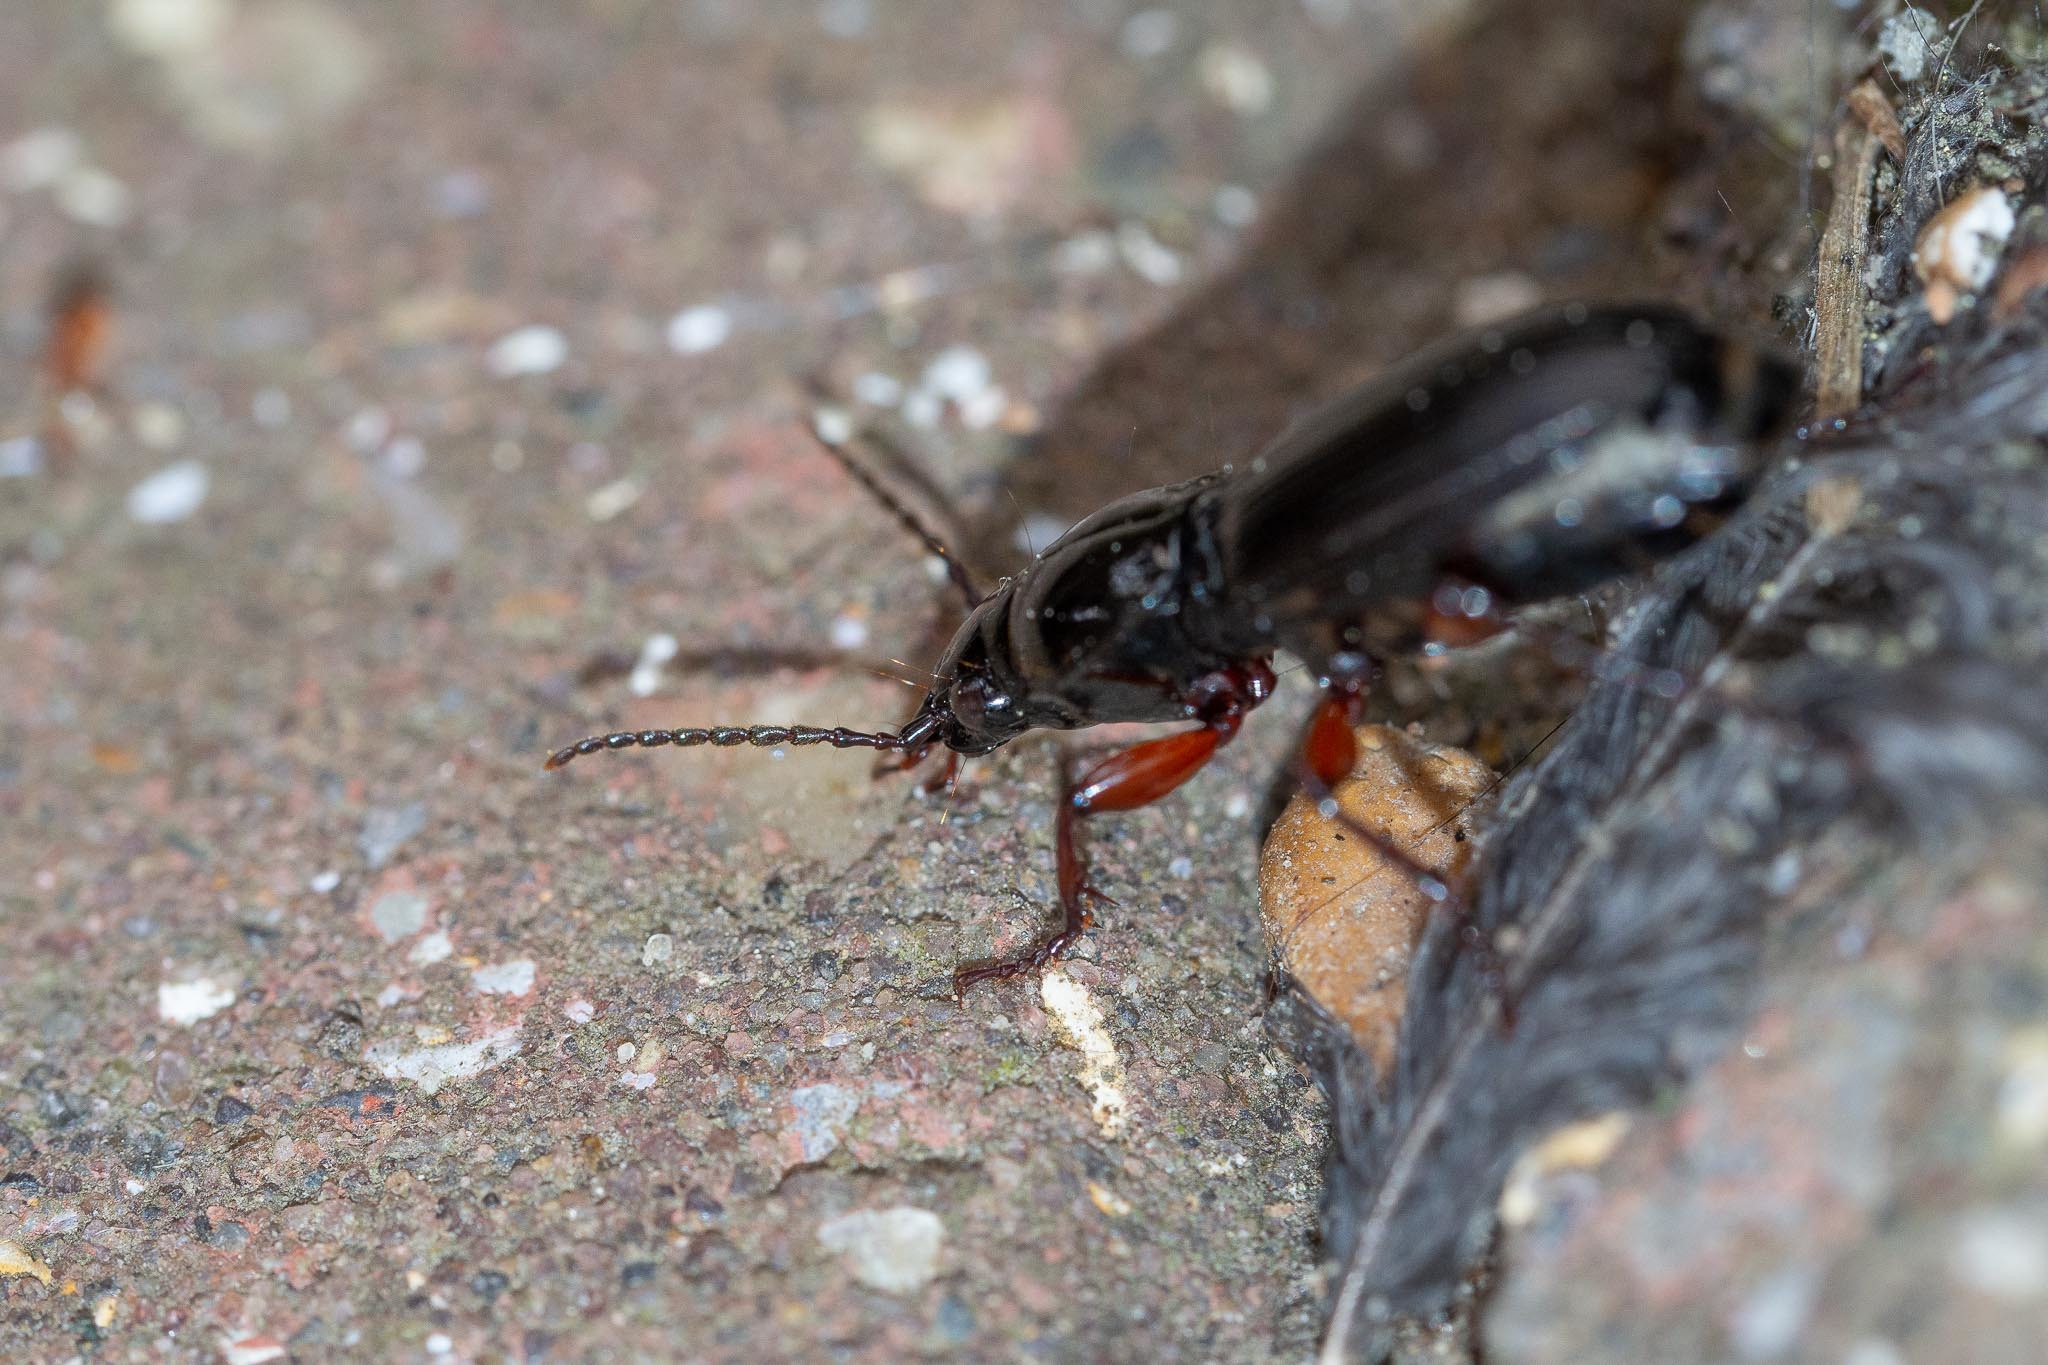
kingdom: Animalia
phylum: Arthropoda
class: Insecta
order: Coleoptera
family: Carabidae
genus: Pterostichus
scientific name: Pterostichus madidus
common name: Black clock
